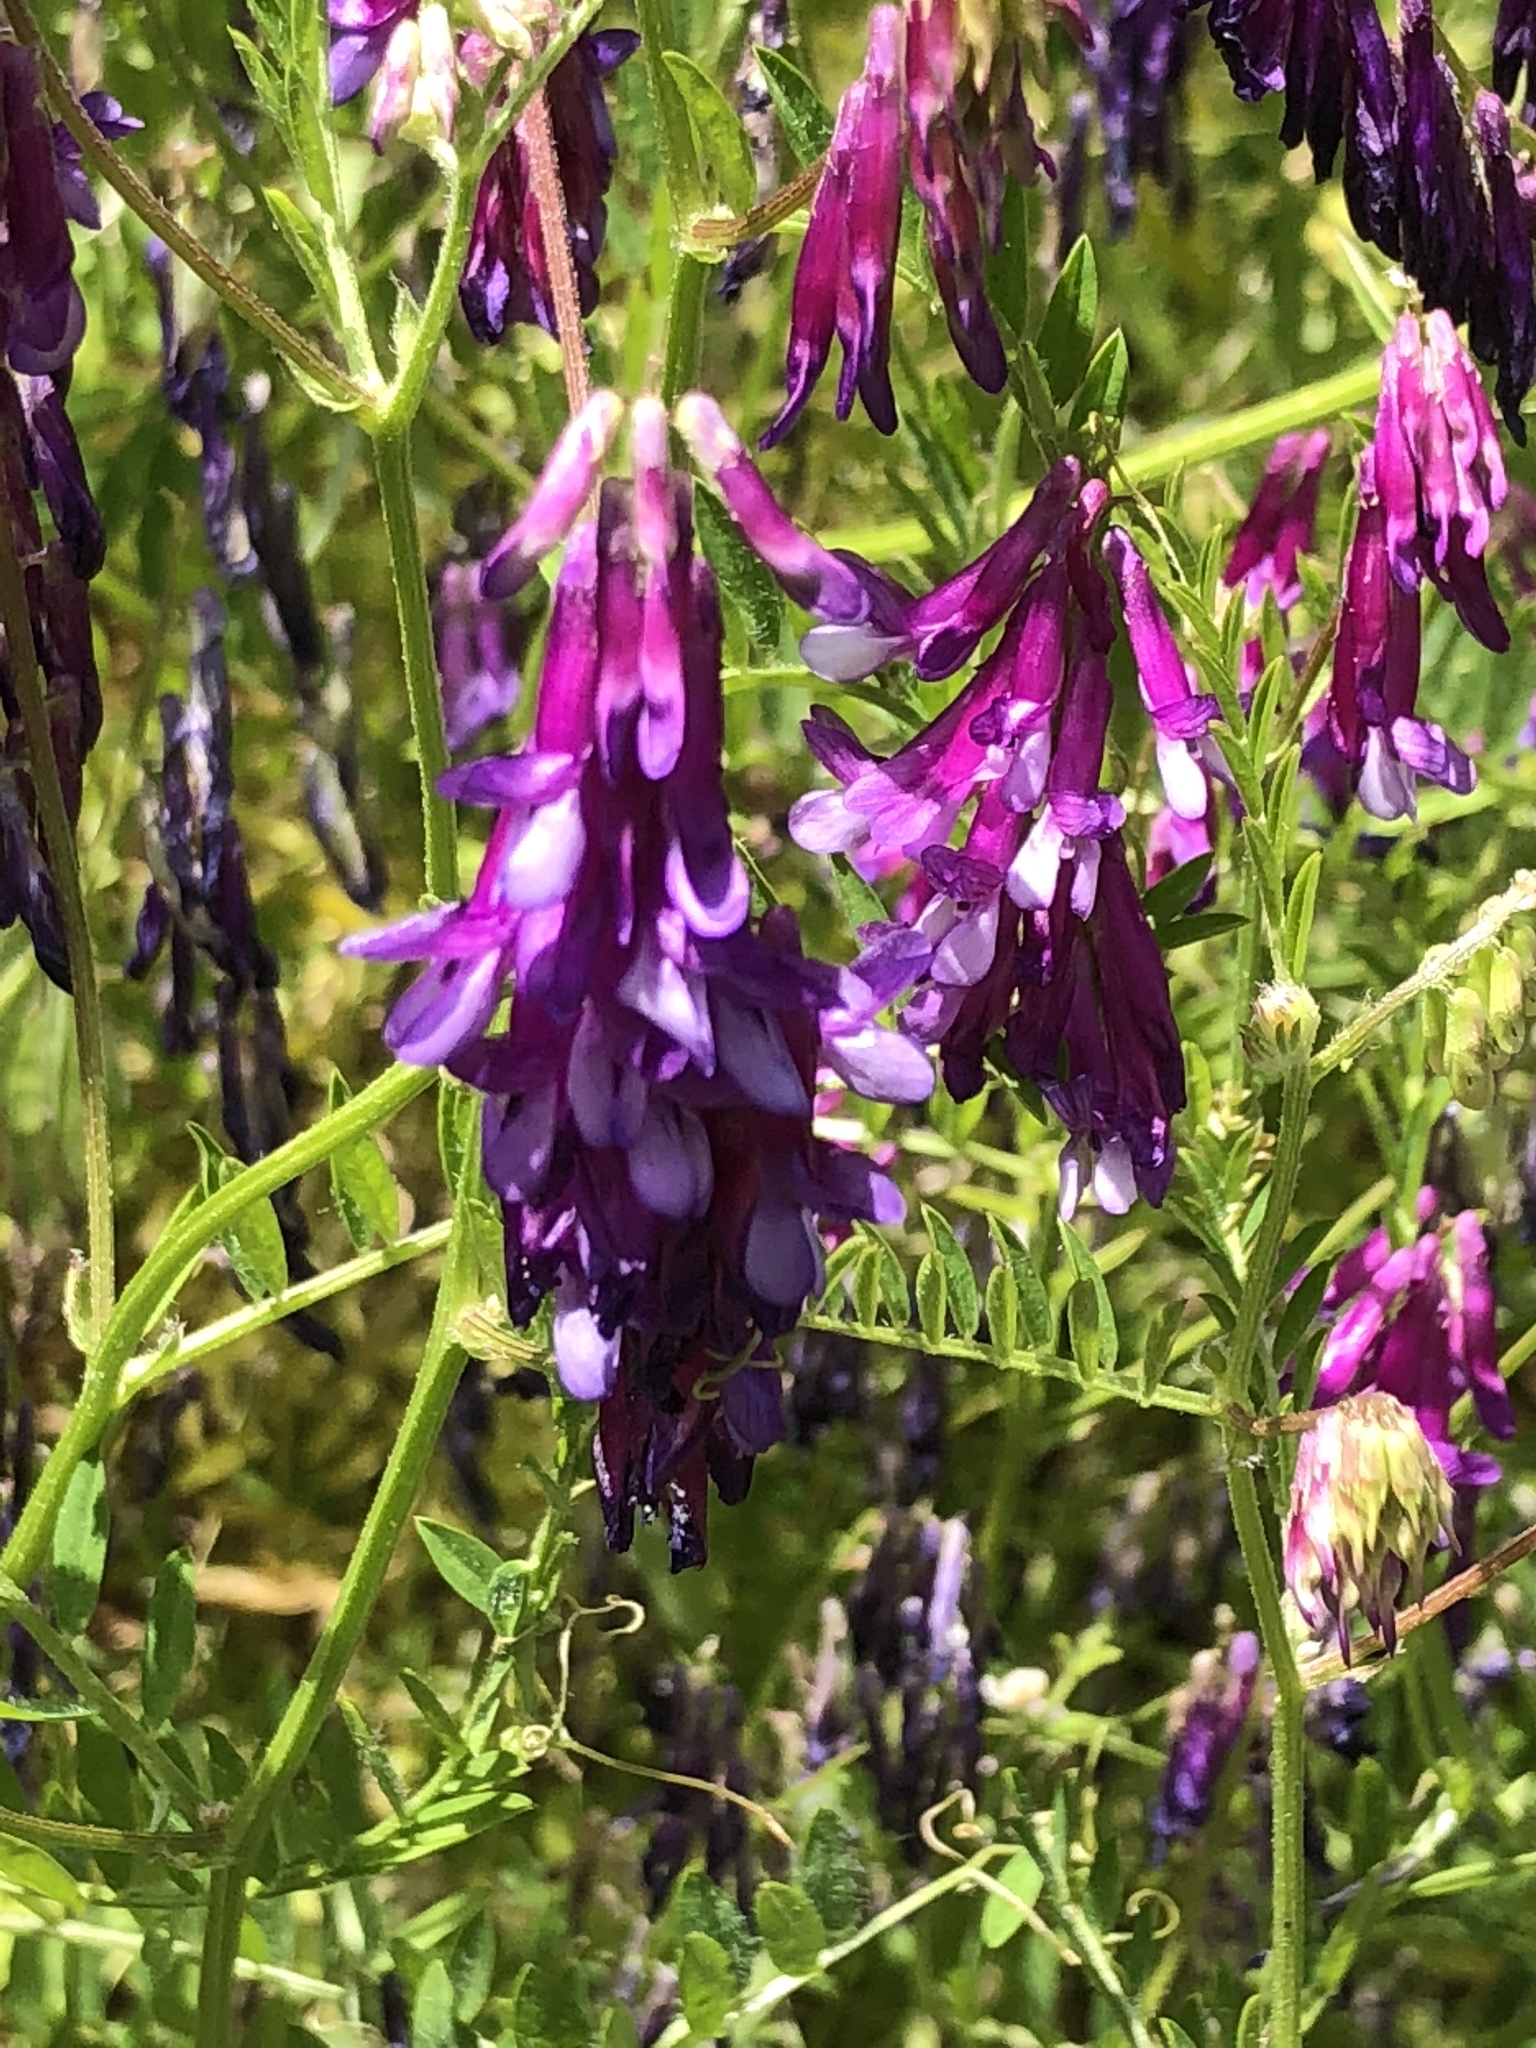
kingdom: Plantae
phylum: Tracheophyta
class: Magnoliopsida
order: Fabales
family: Fabaceae
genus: Vicia
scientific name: Vicia villosa
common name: Fodder vetch
